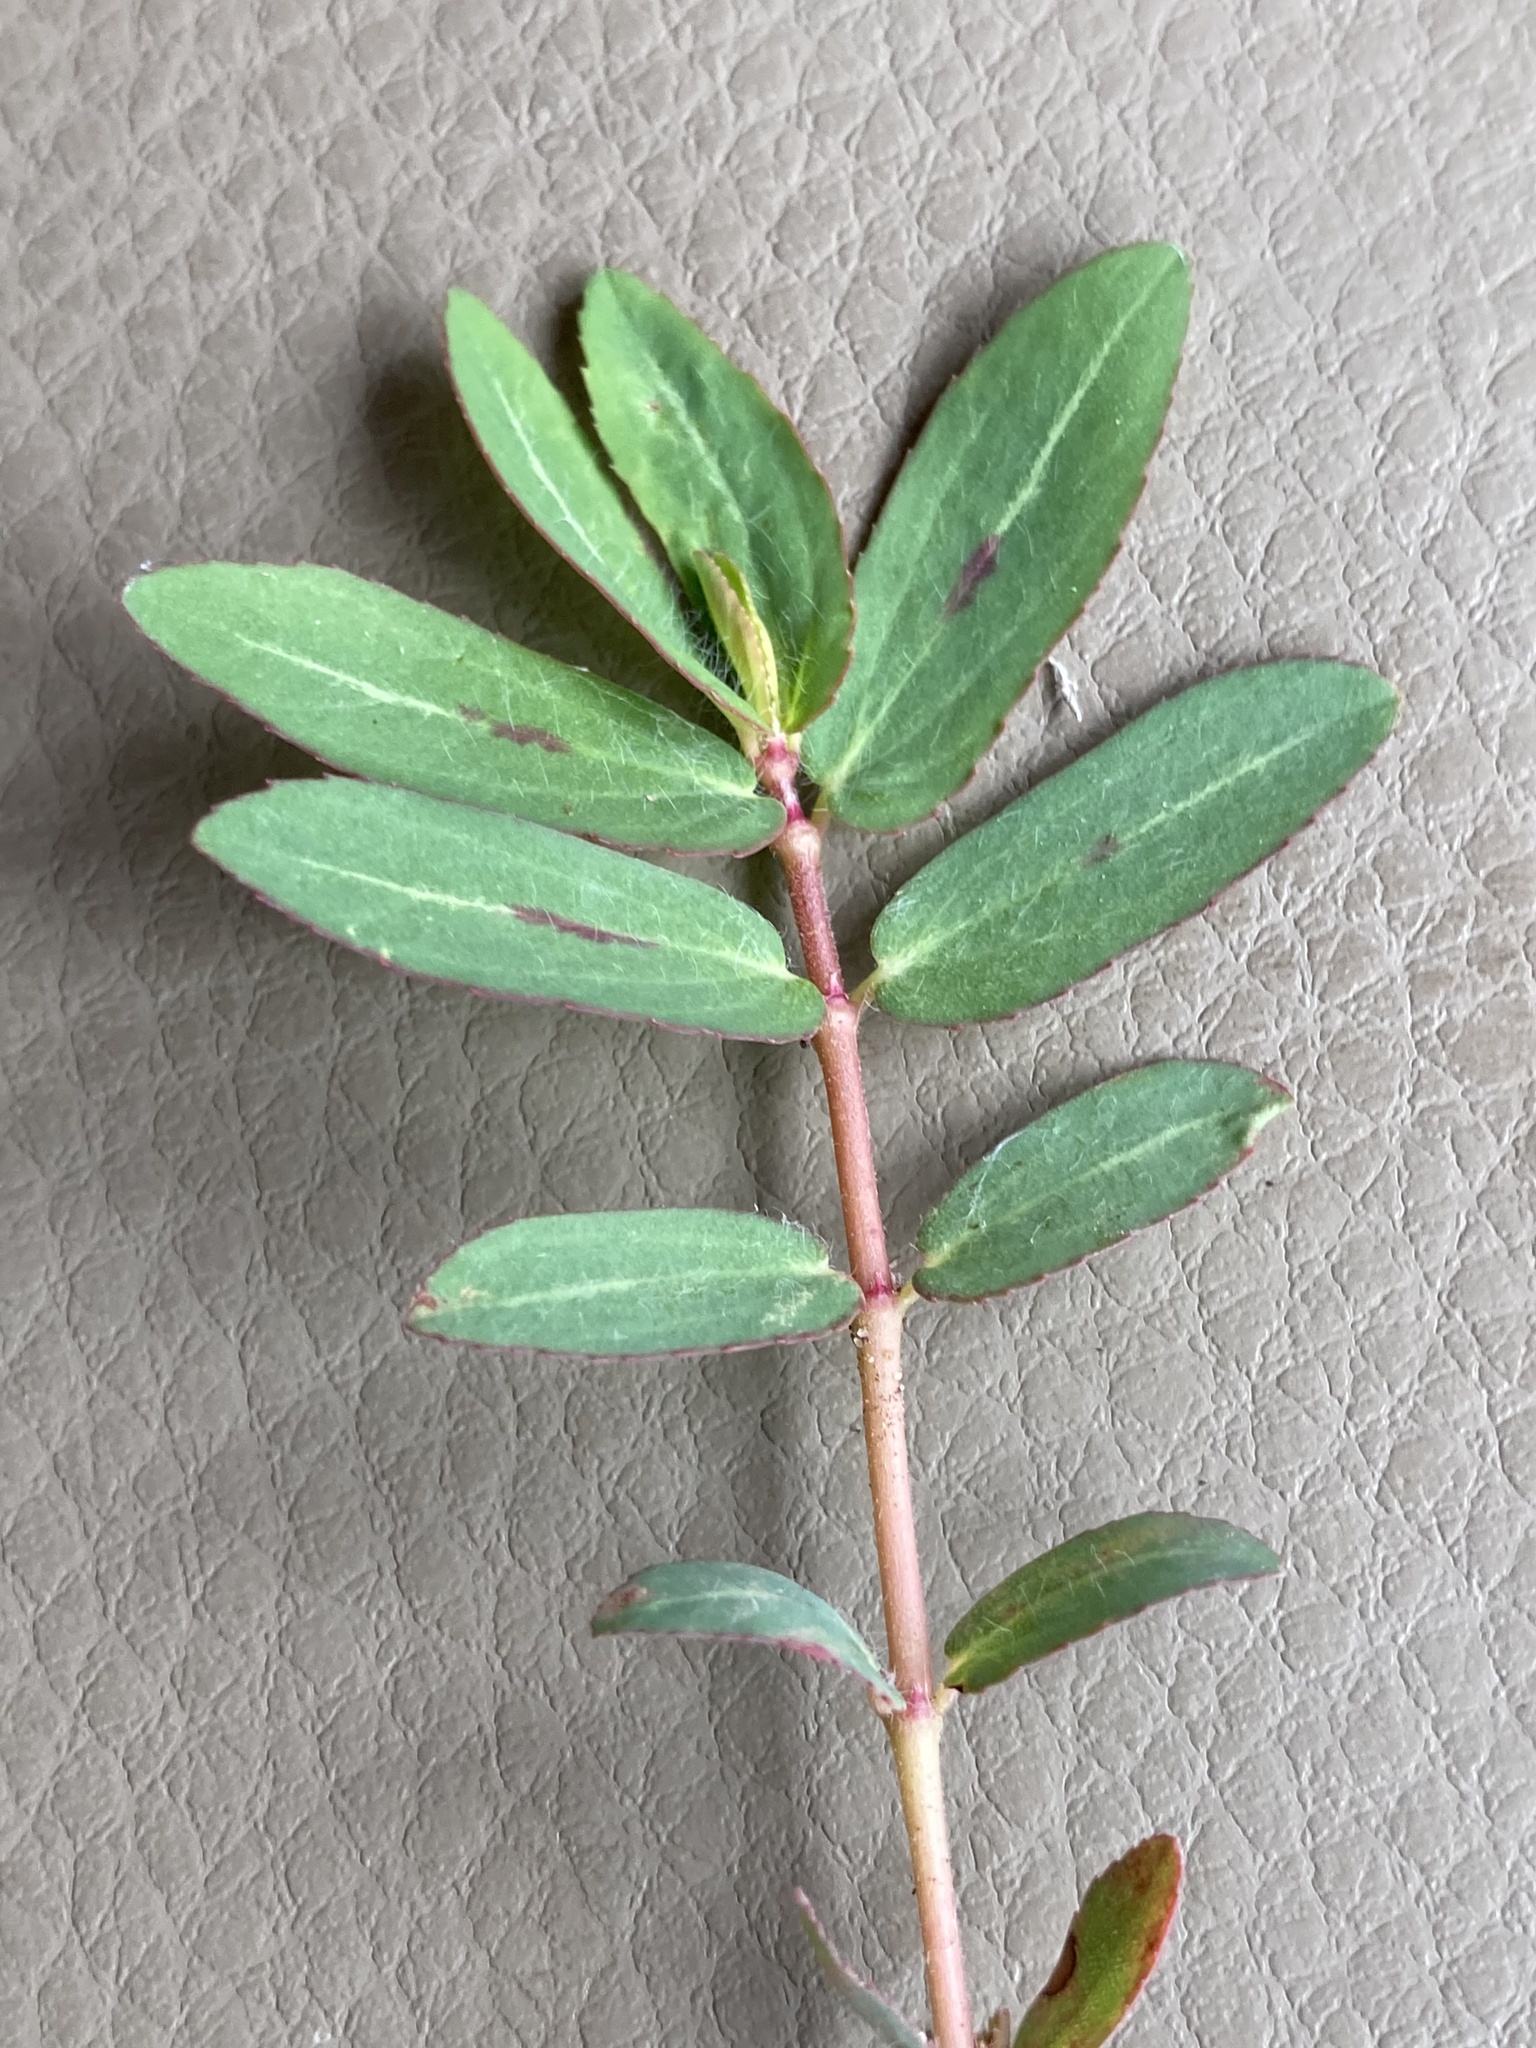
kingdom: Plantae
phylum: Tracheophyta
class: Magnoliopsida
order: Malpighiales
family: Euphorbiaceae
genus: Euphorbia
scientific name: Euphorbia nutans
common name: Eyebane
